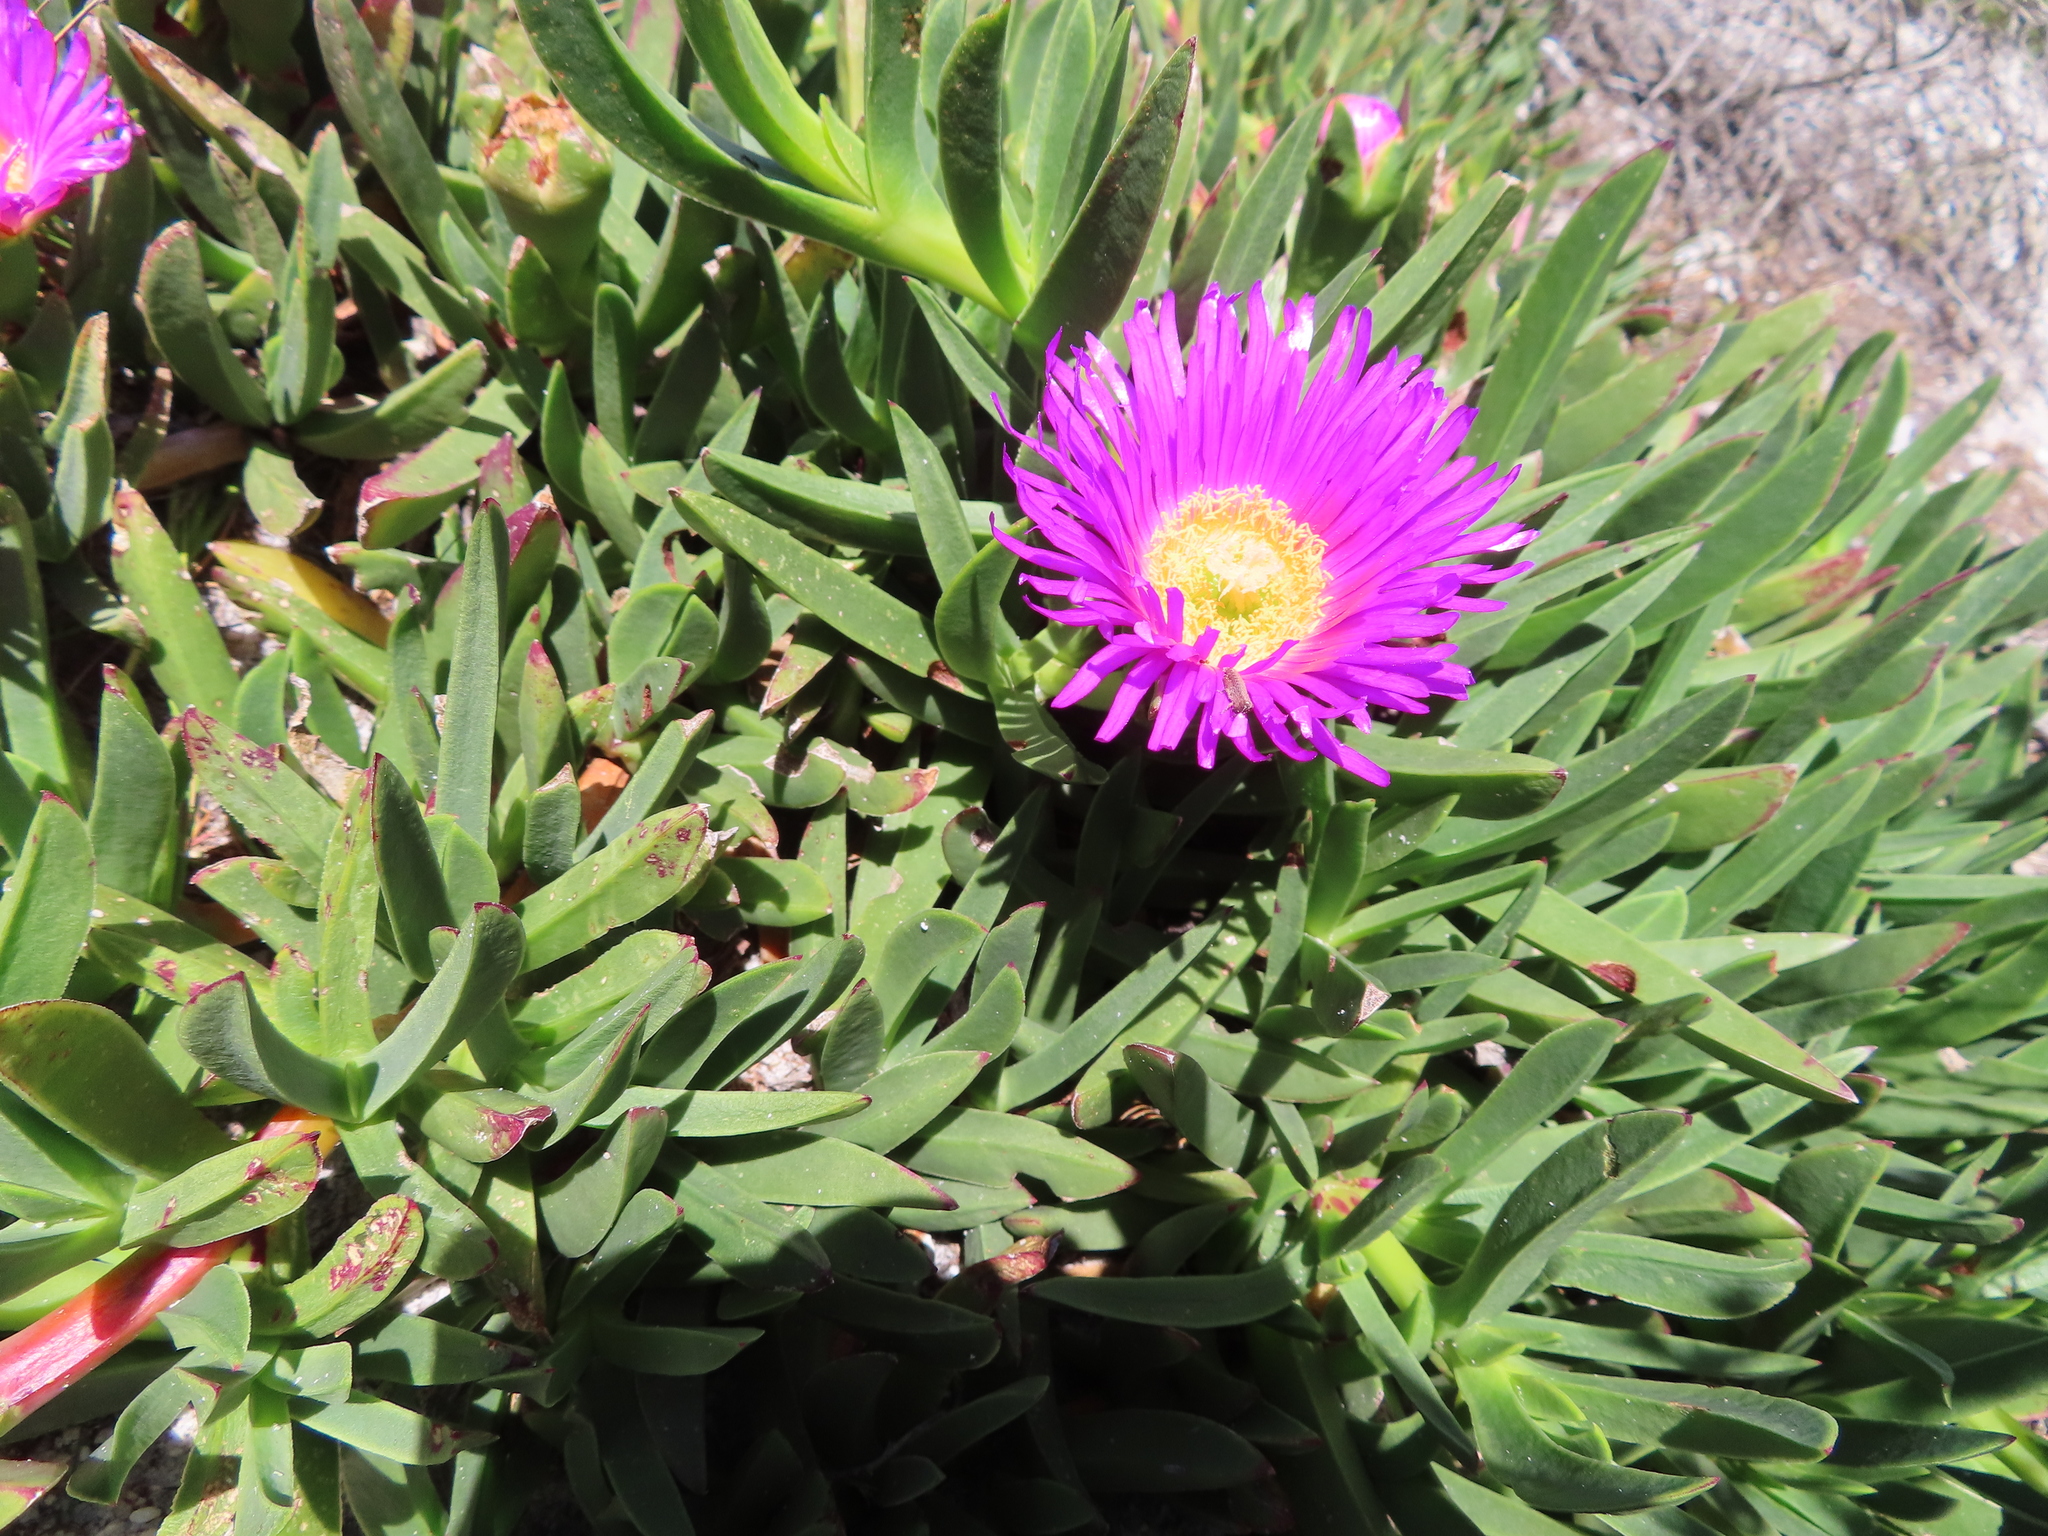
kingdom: Plantae
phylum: Tracheophyta
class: Magnoliopsida
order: Caryophyllales
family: Aizoaceae
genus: Carpobrotus
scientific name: Carpobrotus mellei
